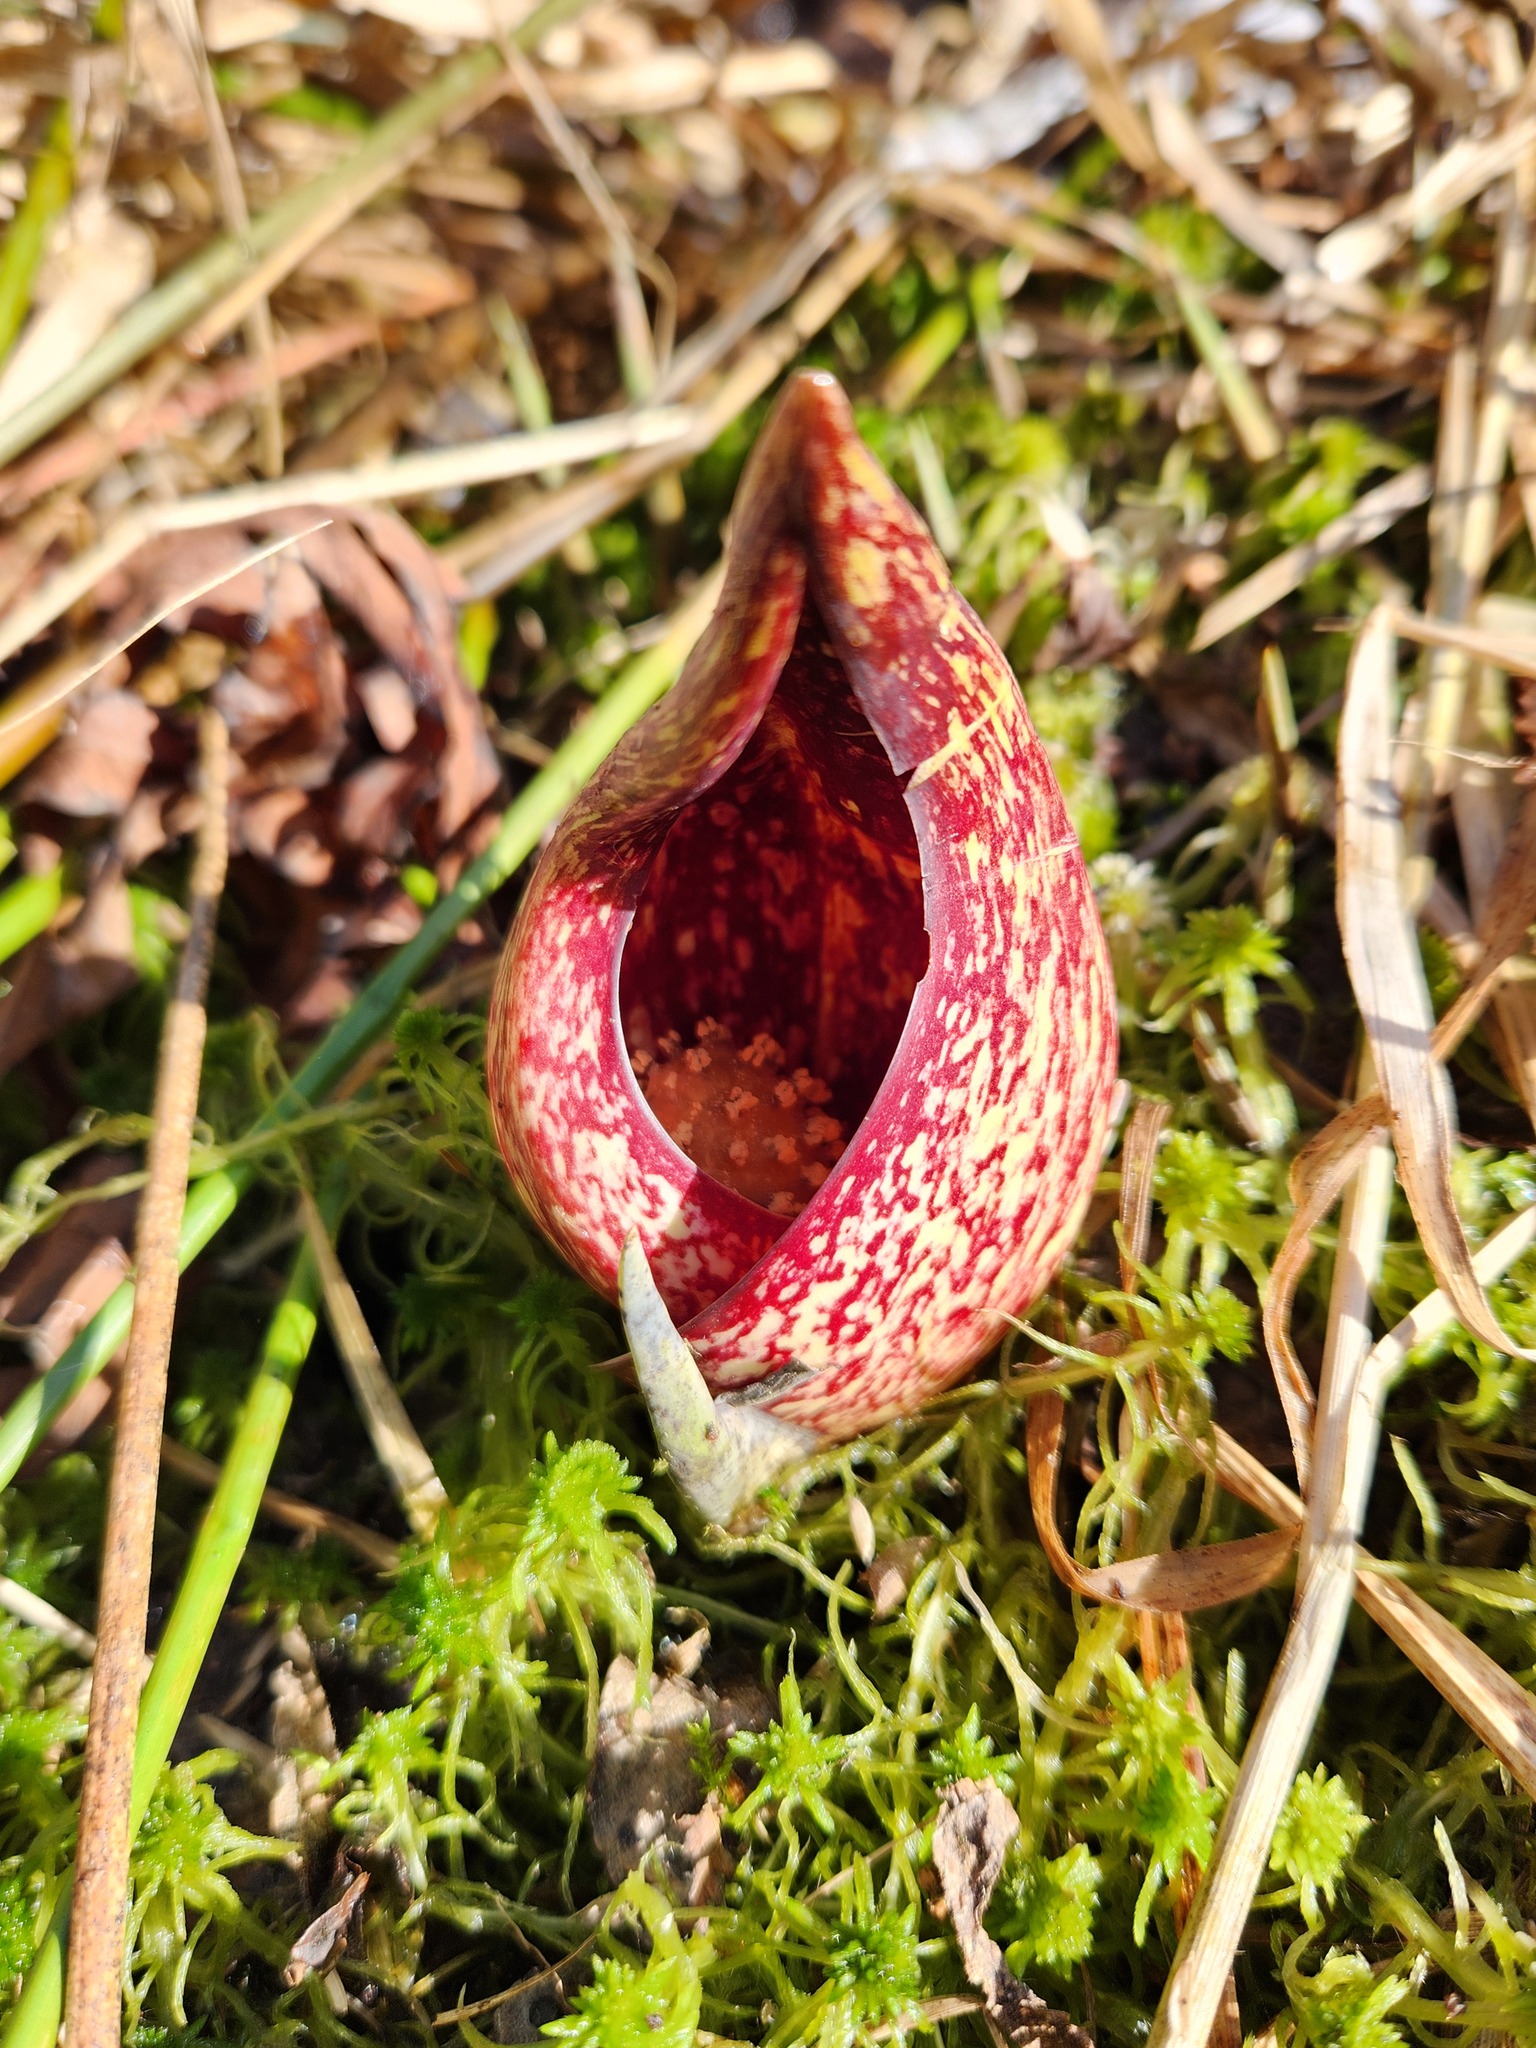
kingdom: Plantae
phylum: Tracheophyta
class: Liliopsida
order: Alismatales
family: Araceae
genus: Symplocarpus
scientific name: Symplocarpus foetidus
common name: Eastern skunk cabbage
